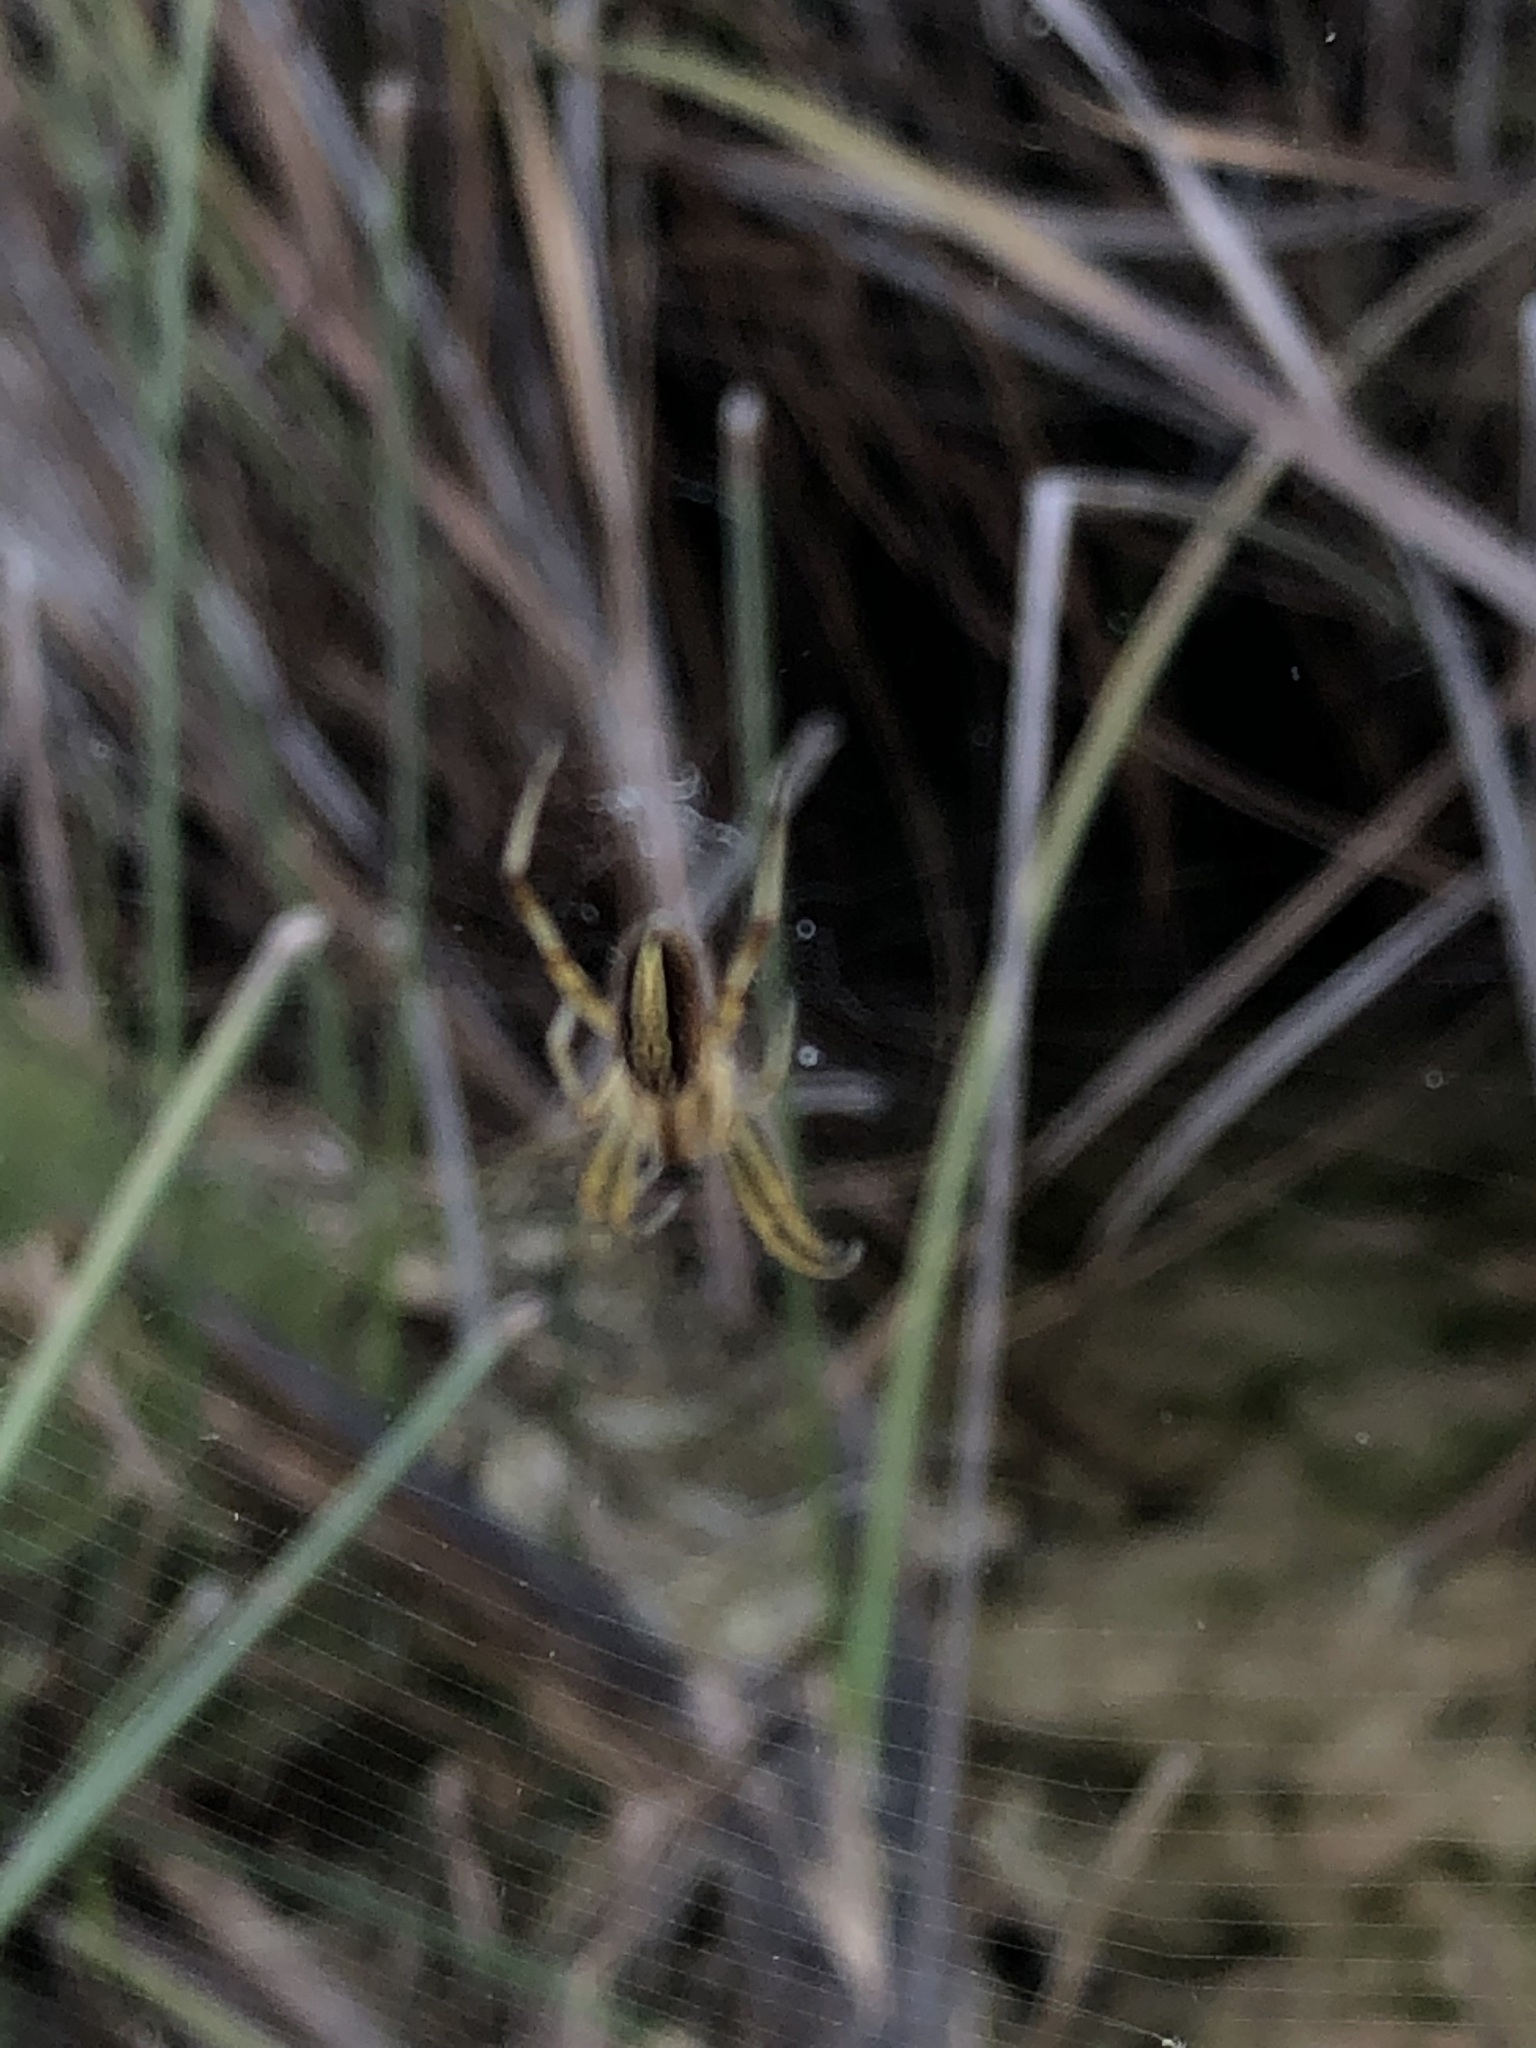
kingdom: Animalia
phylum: Arthropoda
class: Arachnida
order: Araneae
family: Araneidae
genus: Neoscona
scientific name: Neoscona moreli
